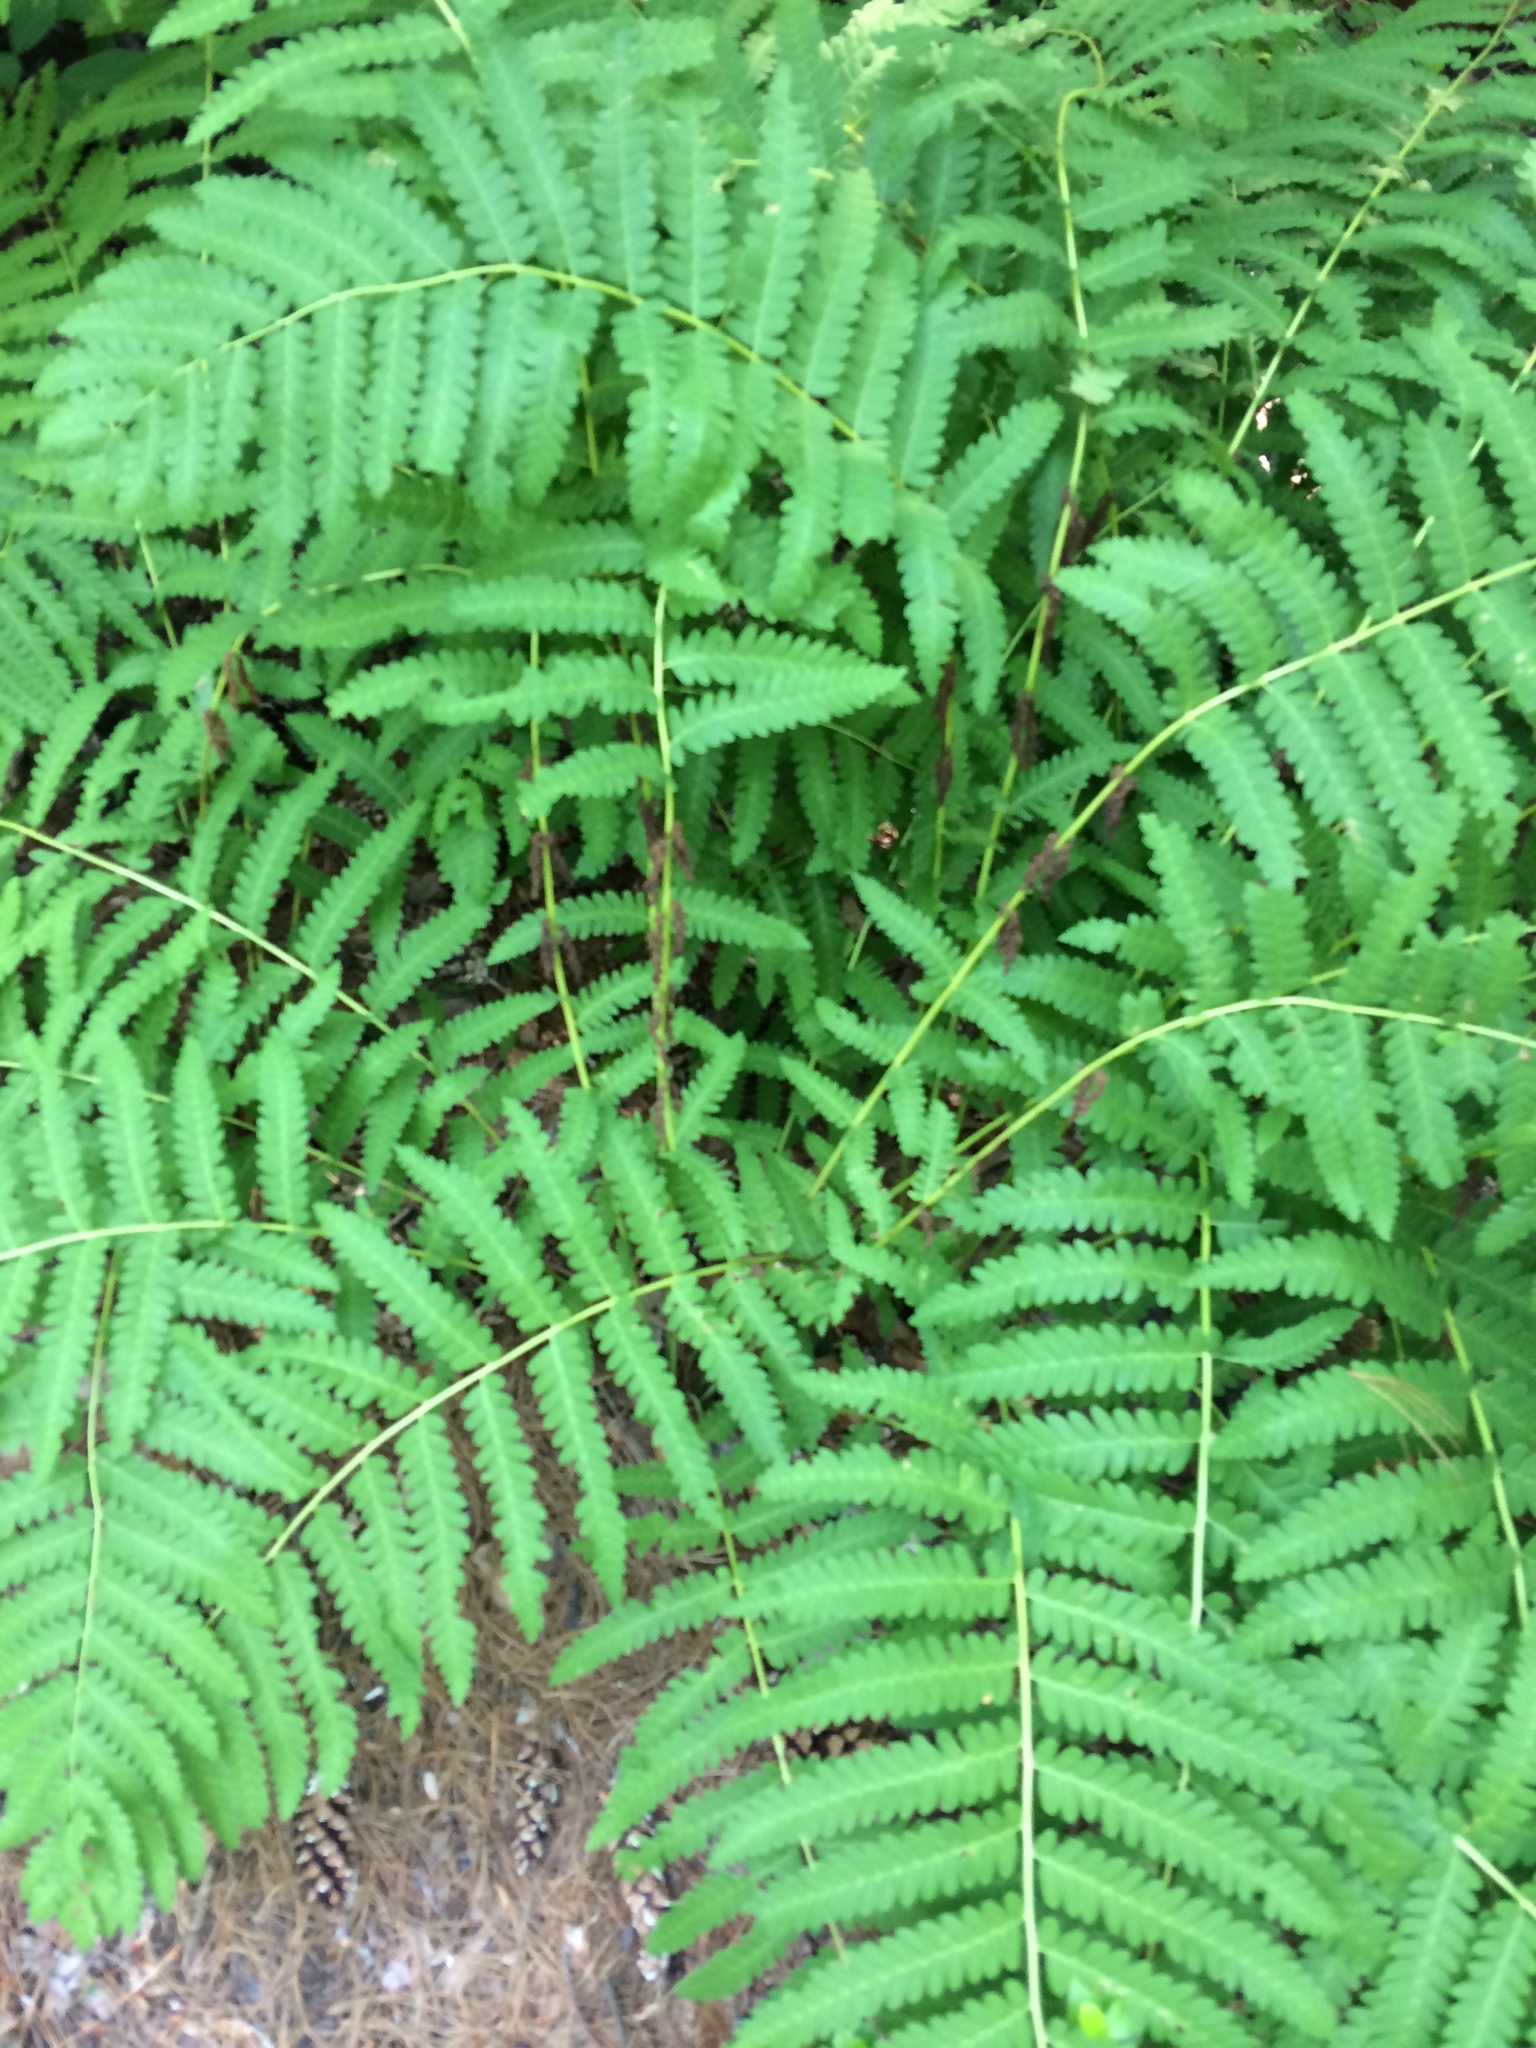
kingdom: Plantae
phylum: Tracheophyta
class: Polypodiopsida
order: Osmundales
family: Osmundaceae
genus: Claytosmunda
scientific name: Claytosmunda claytoniana
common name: Clayton's fern
